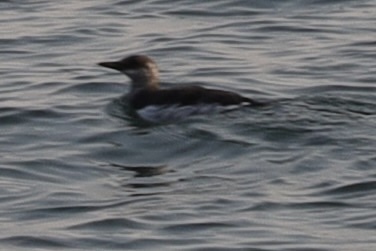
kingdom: Animalia
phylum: Chordata
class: Aves
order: Charadriiformes
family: Alcidae
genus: Uria
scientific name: Uria aalge
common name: Common murre
